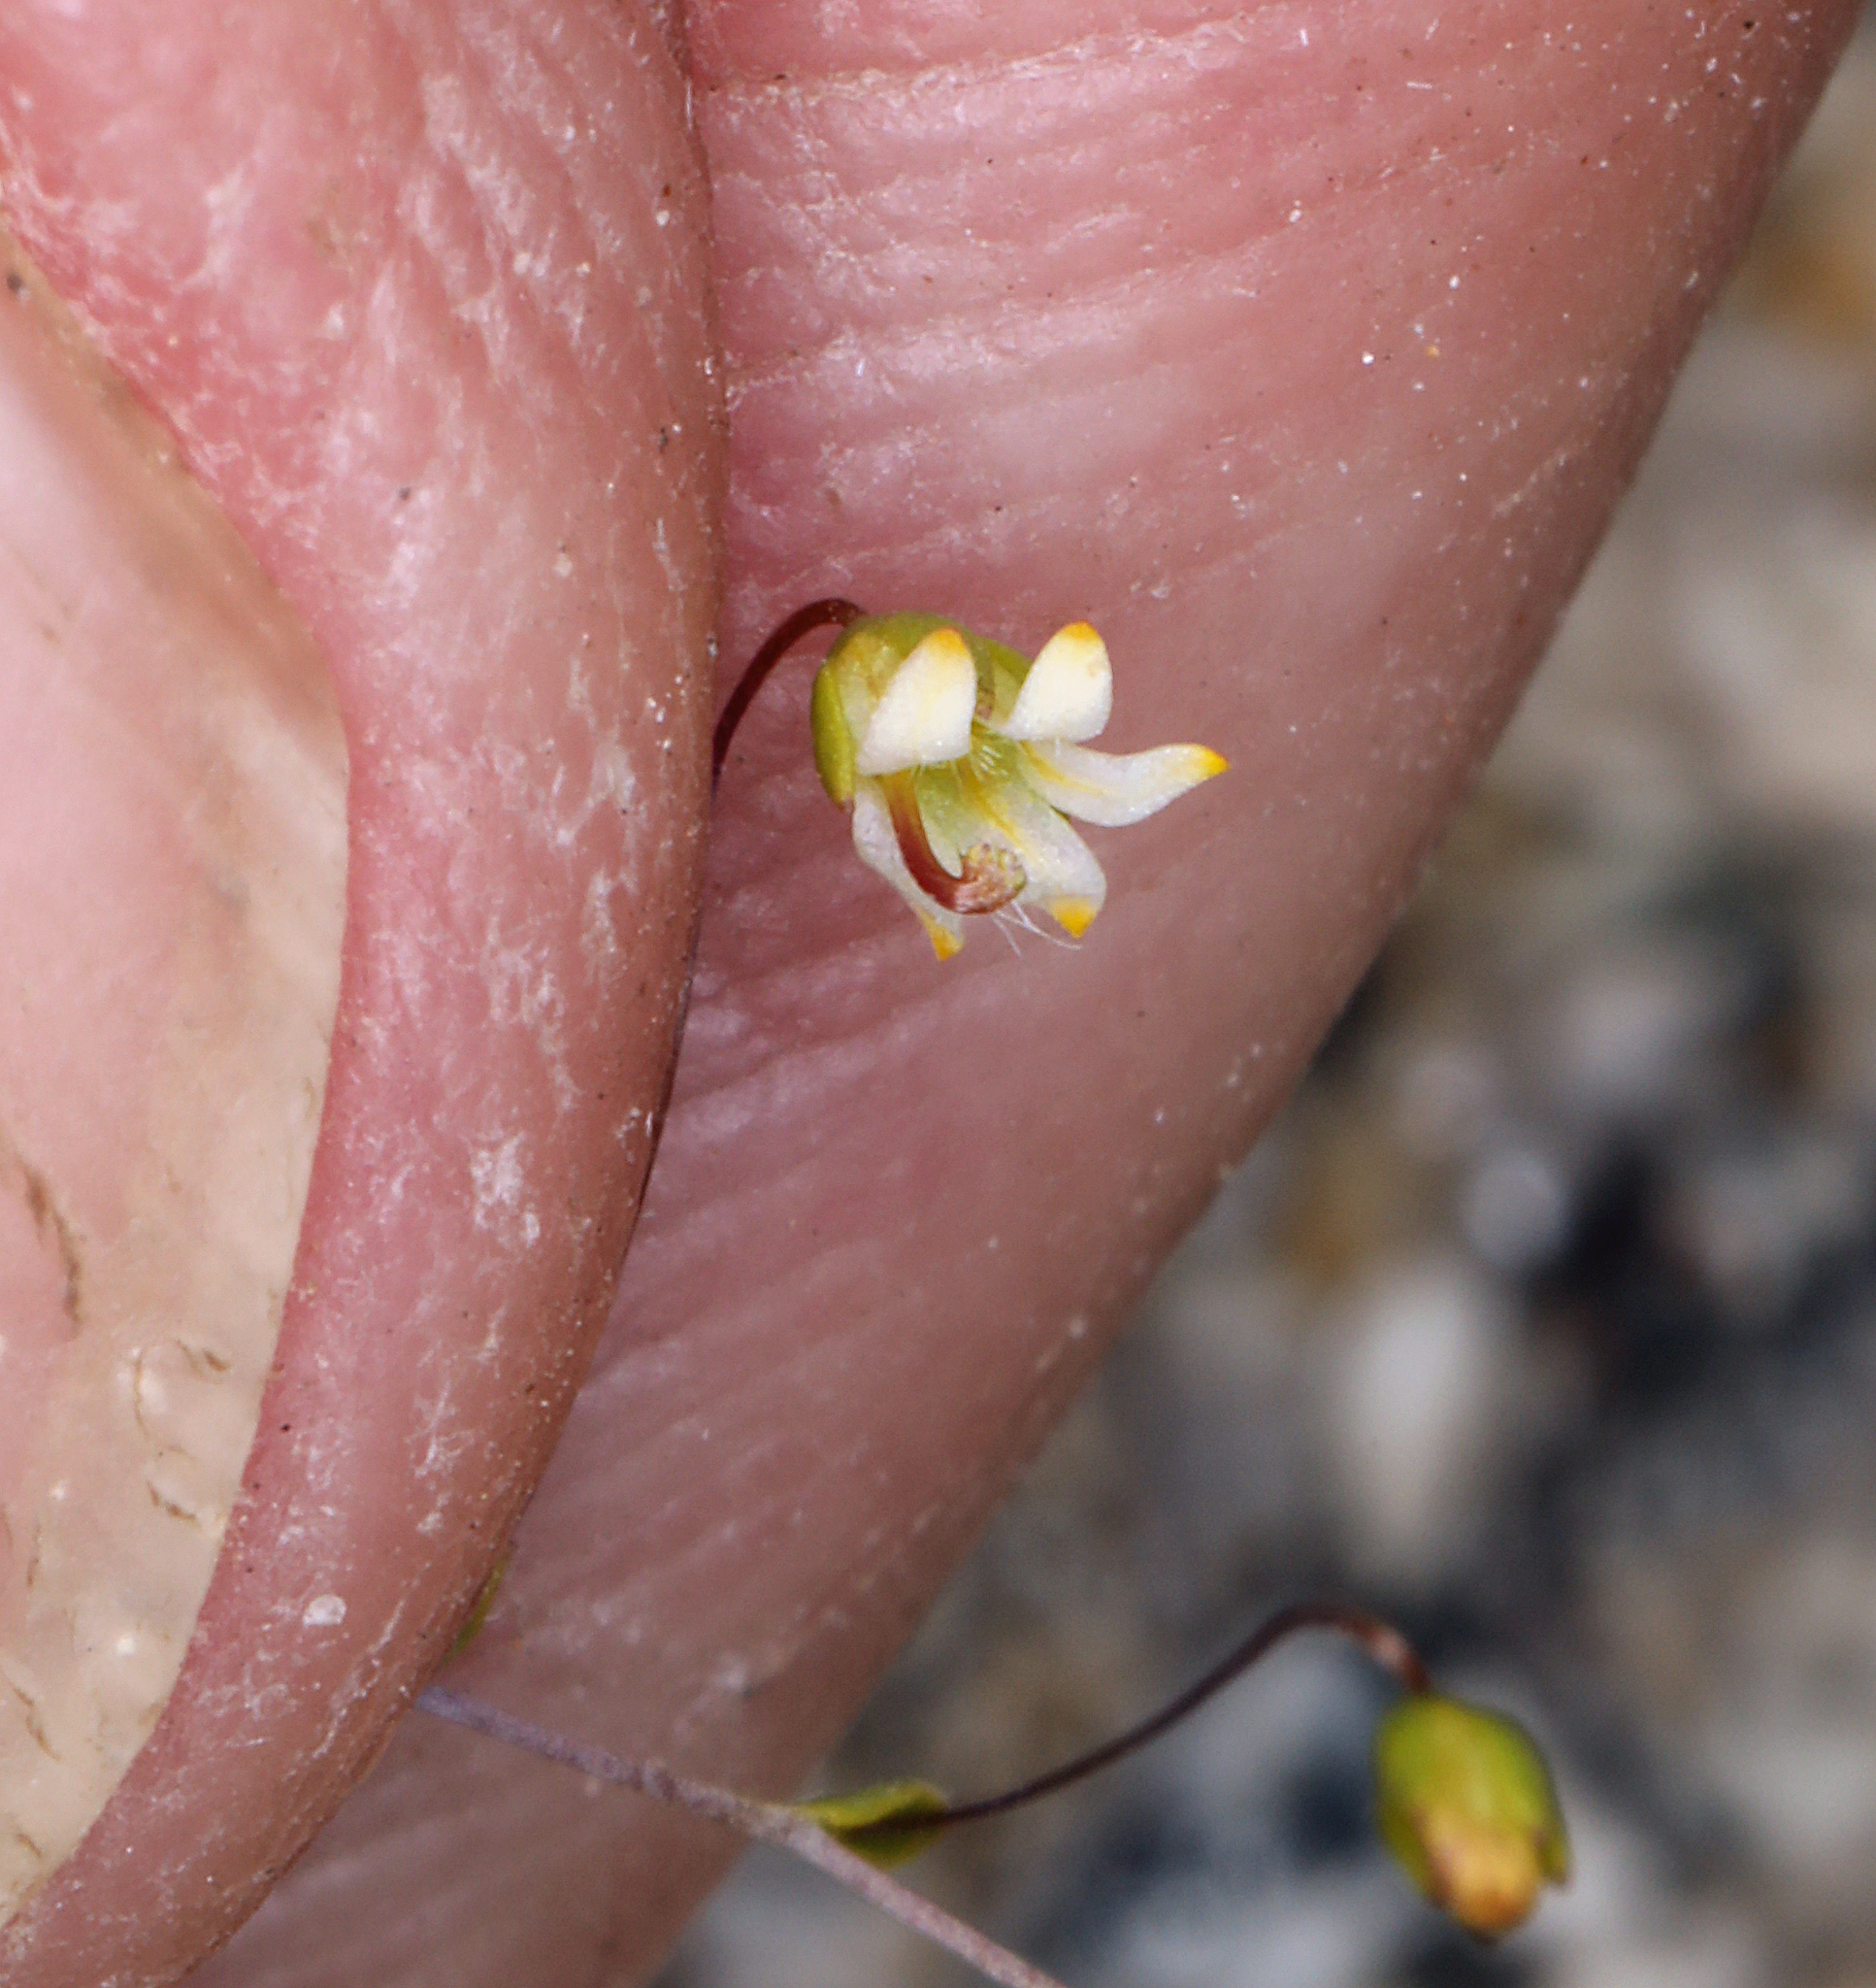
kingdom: Plantae
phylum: Tracheophyta
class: Magnoliopsida
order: Asterales
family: Campanulaceae
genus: Nemacladus
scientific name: Nemacladus eastwoodiae
